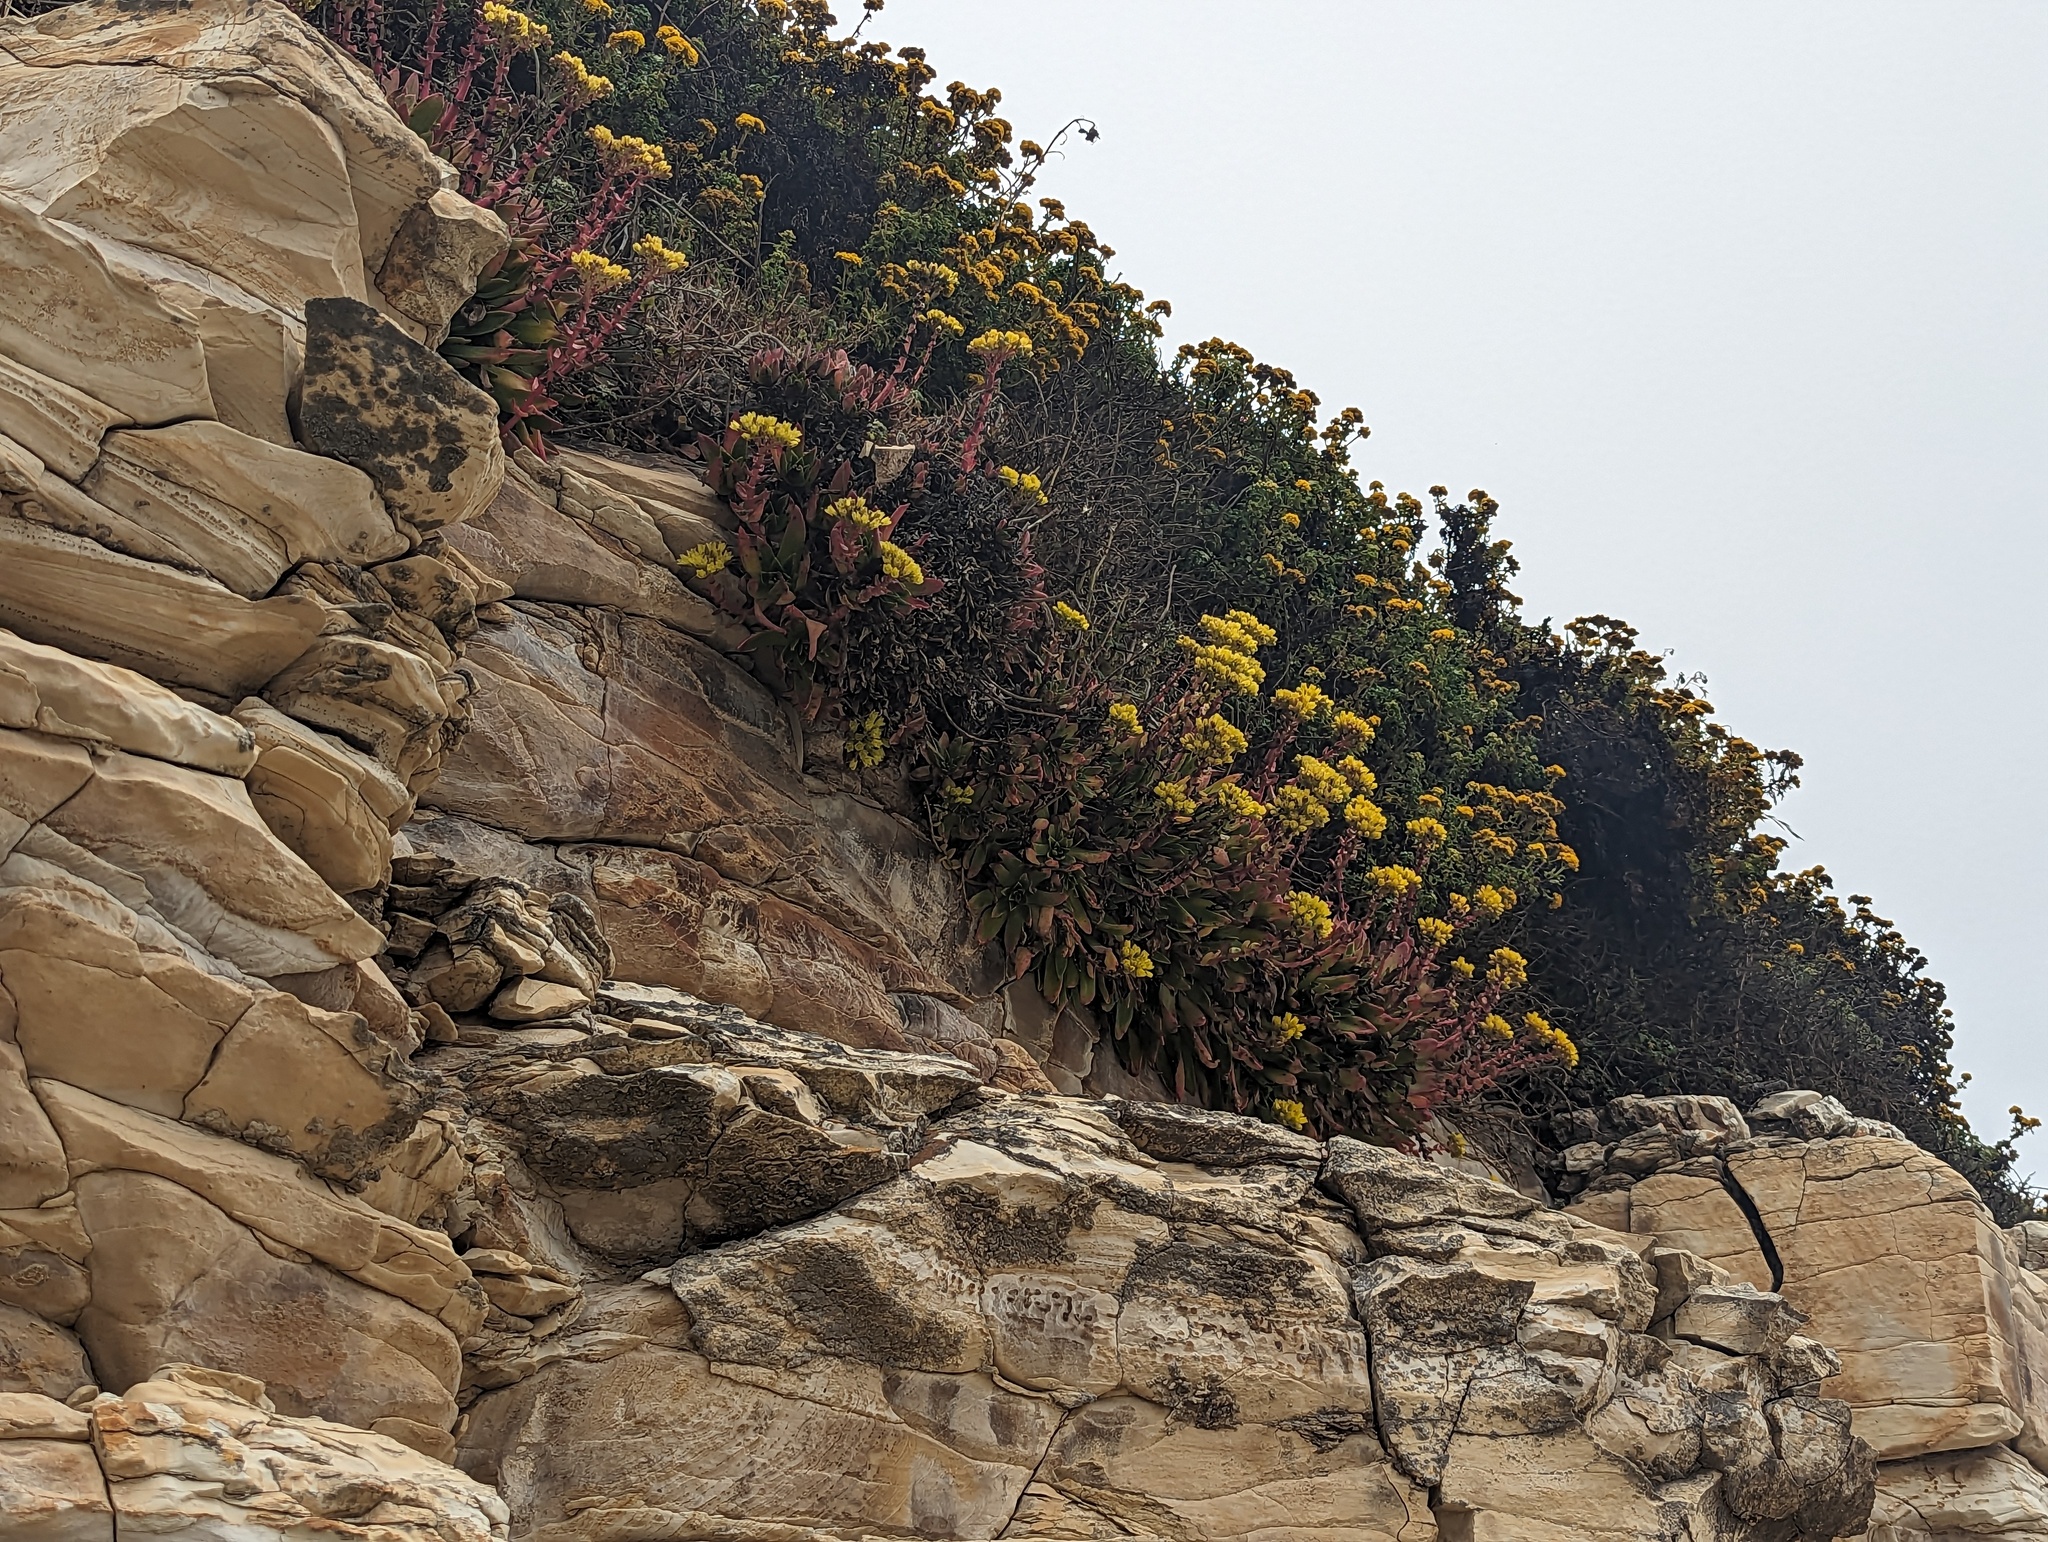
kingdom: Plantae
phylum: Tracheophyta
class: Magnoliopsida
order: Saxifragales
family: Crassulaceae
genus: Dudleya
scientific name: Dudleya caespitosa
